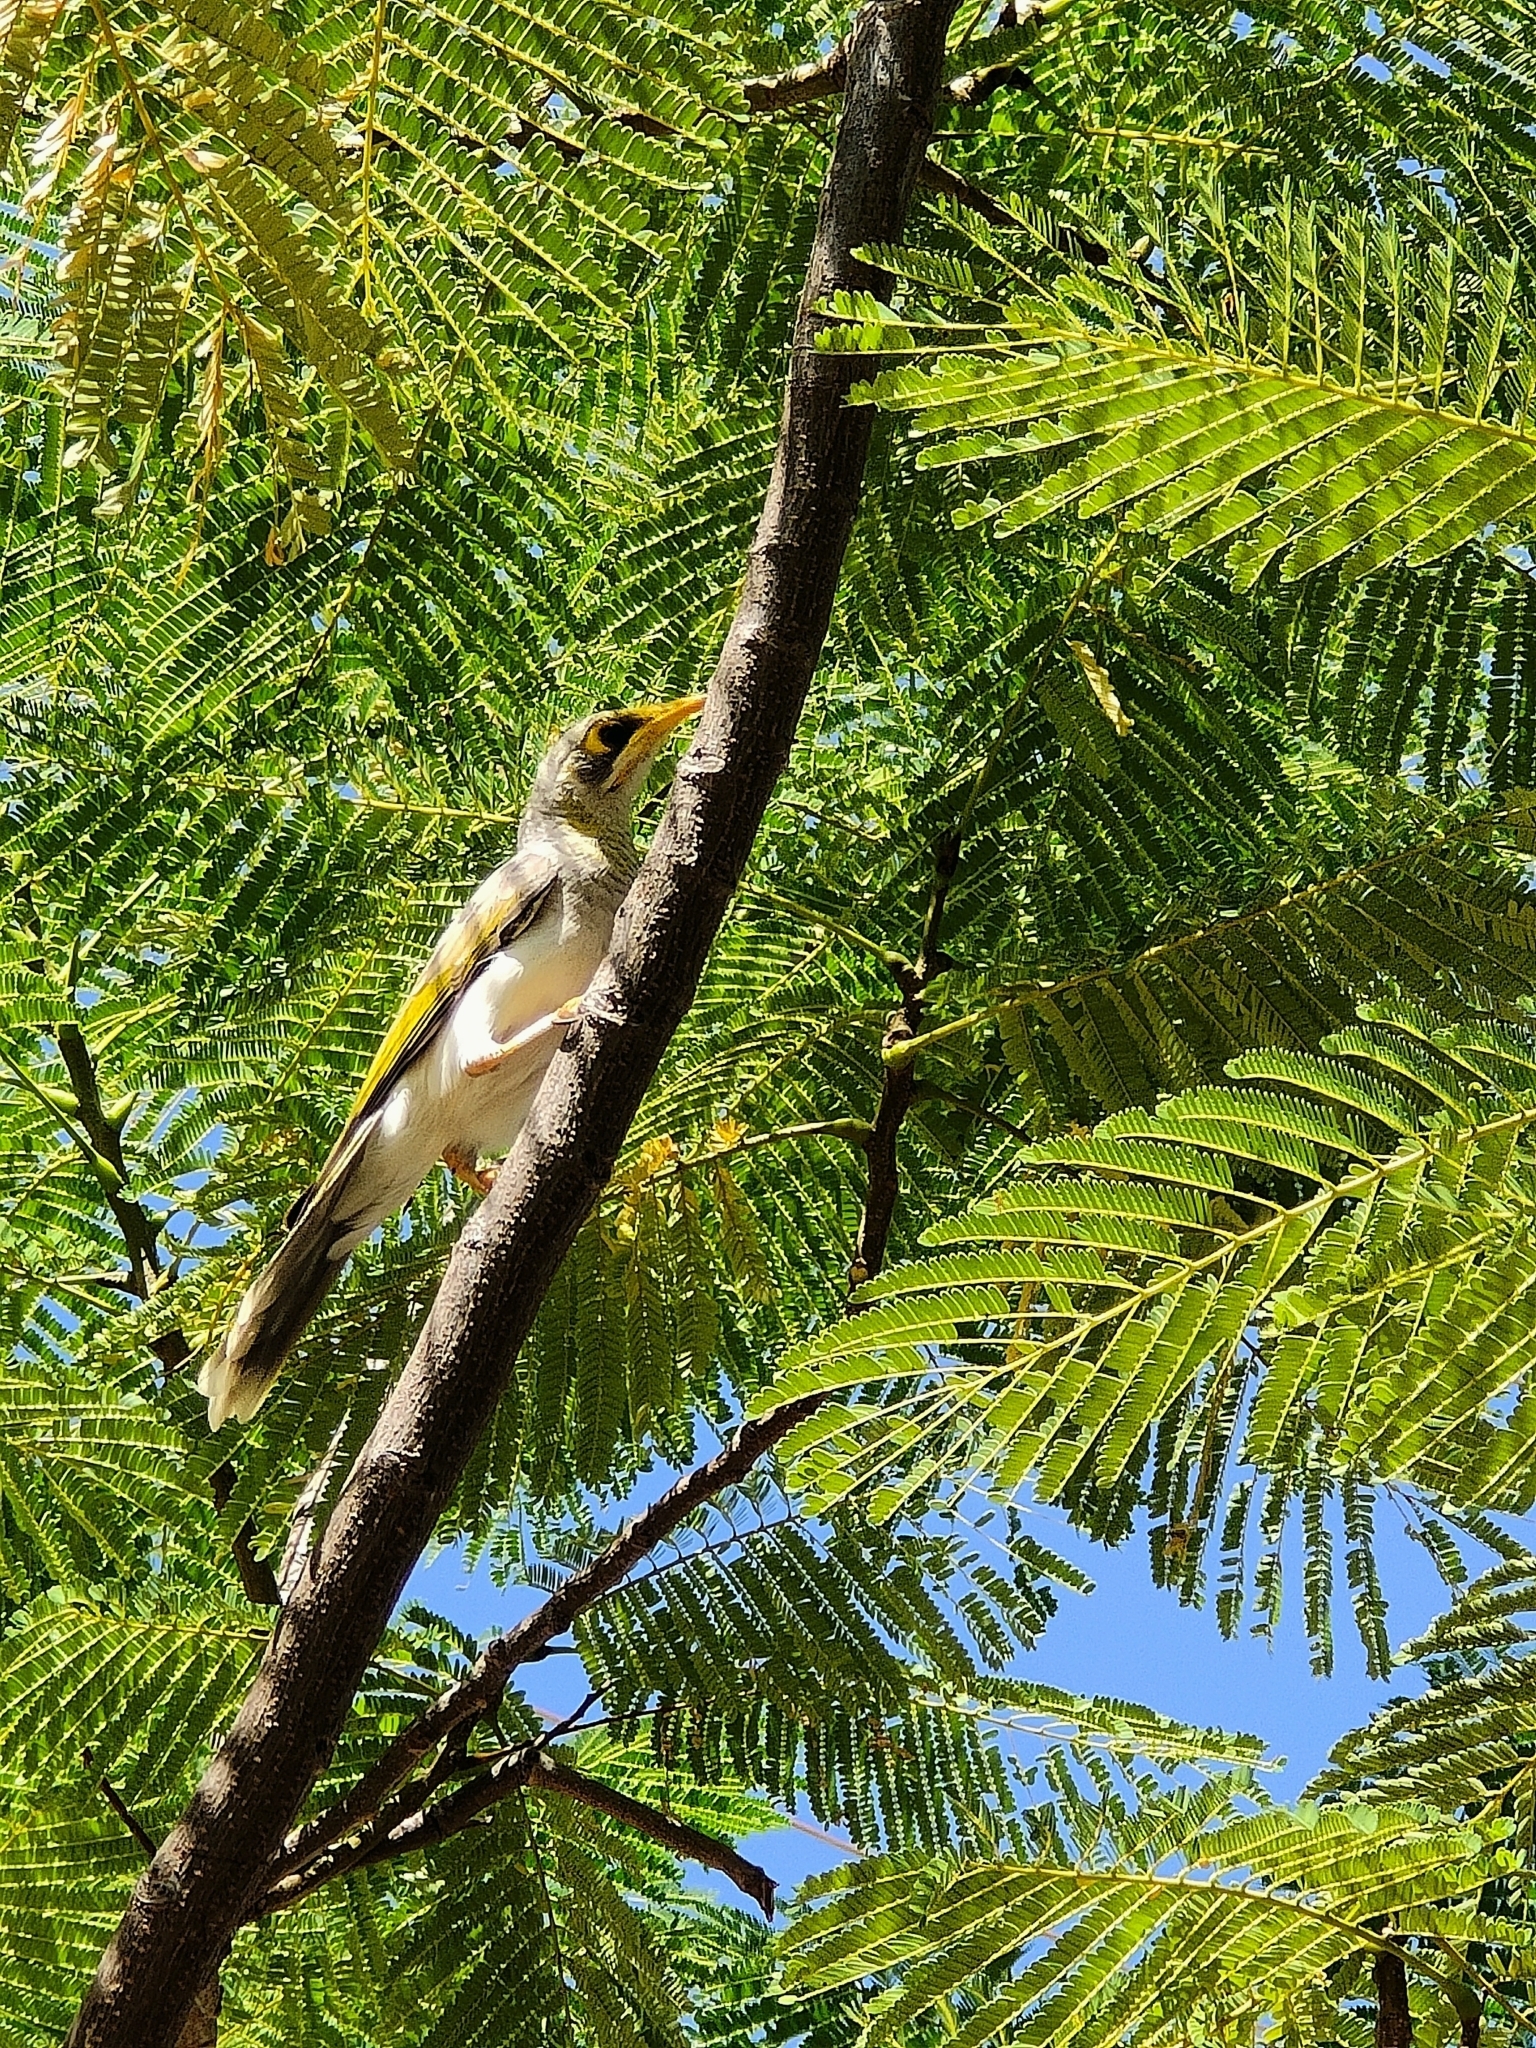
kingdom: Animalia
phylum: Chordata
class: Aves
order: Passeriformes
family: Meliphagidae
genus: Manorina
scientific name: Manorina flavigula
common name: Yellow-throated miner
